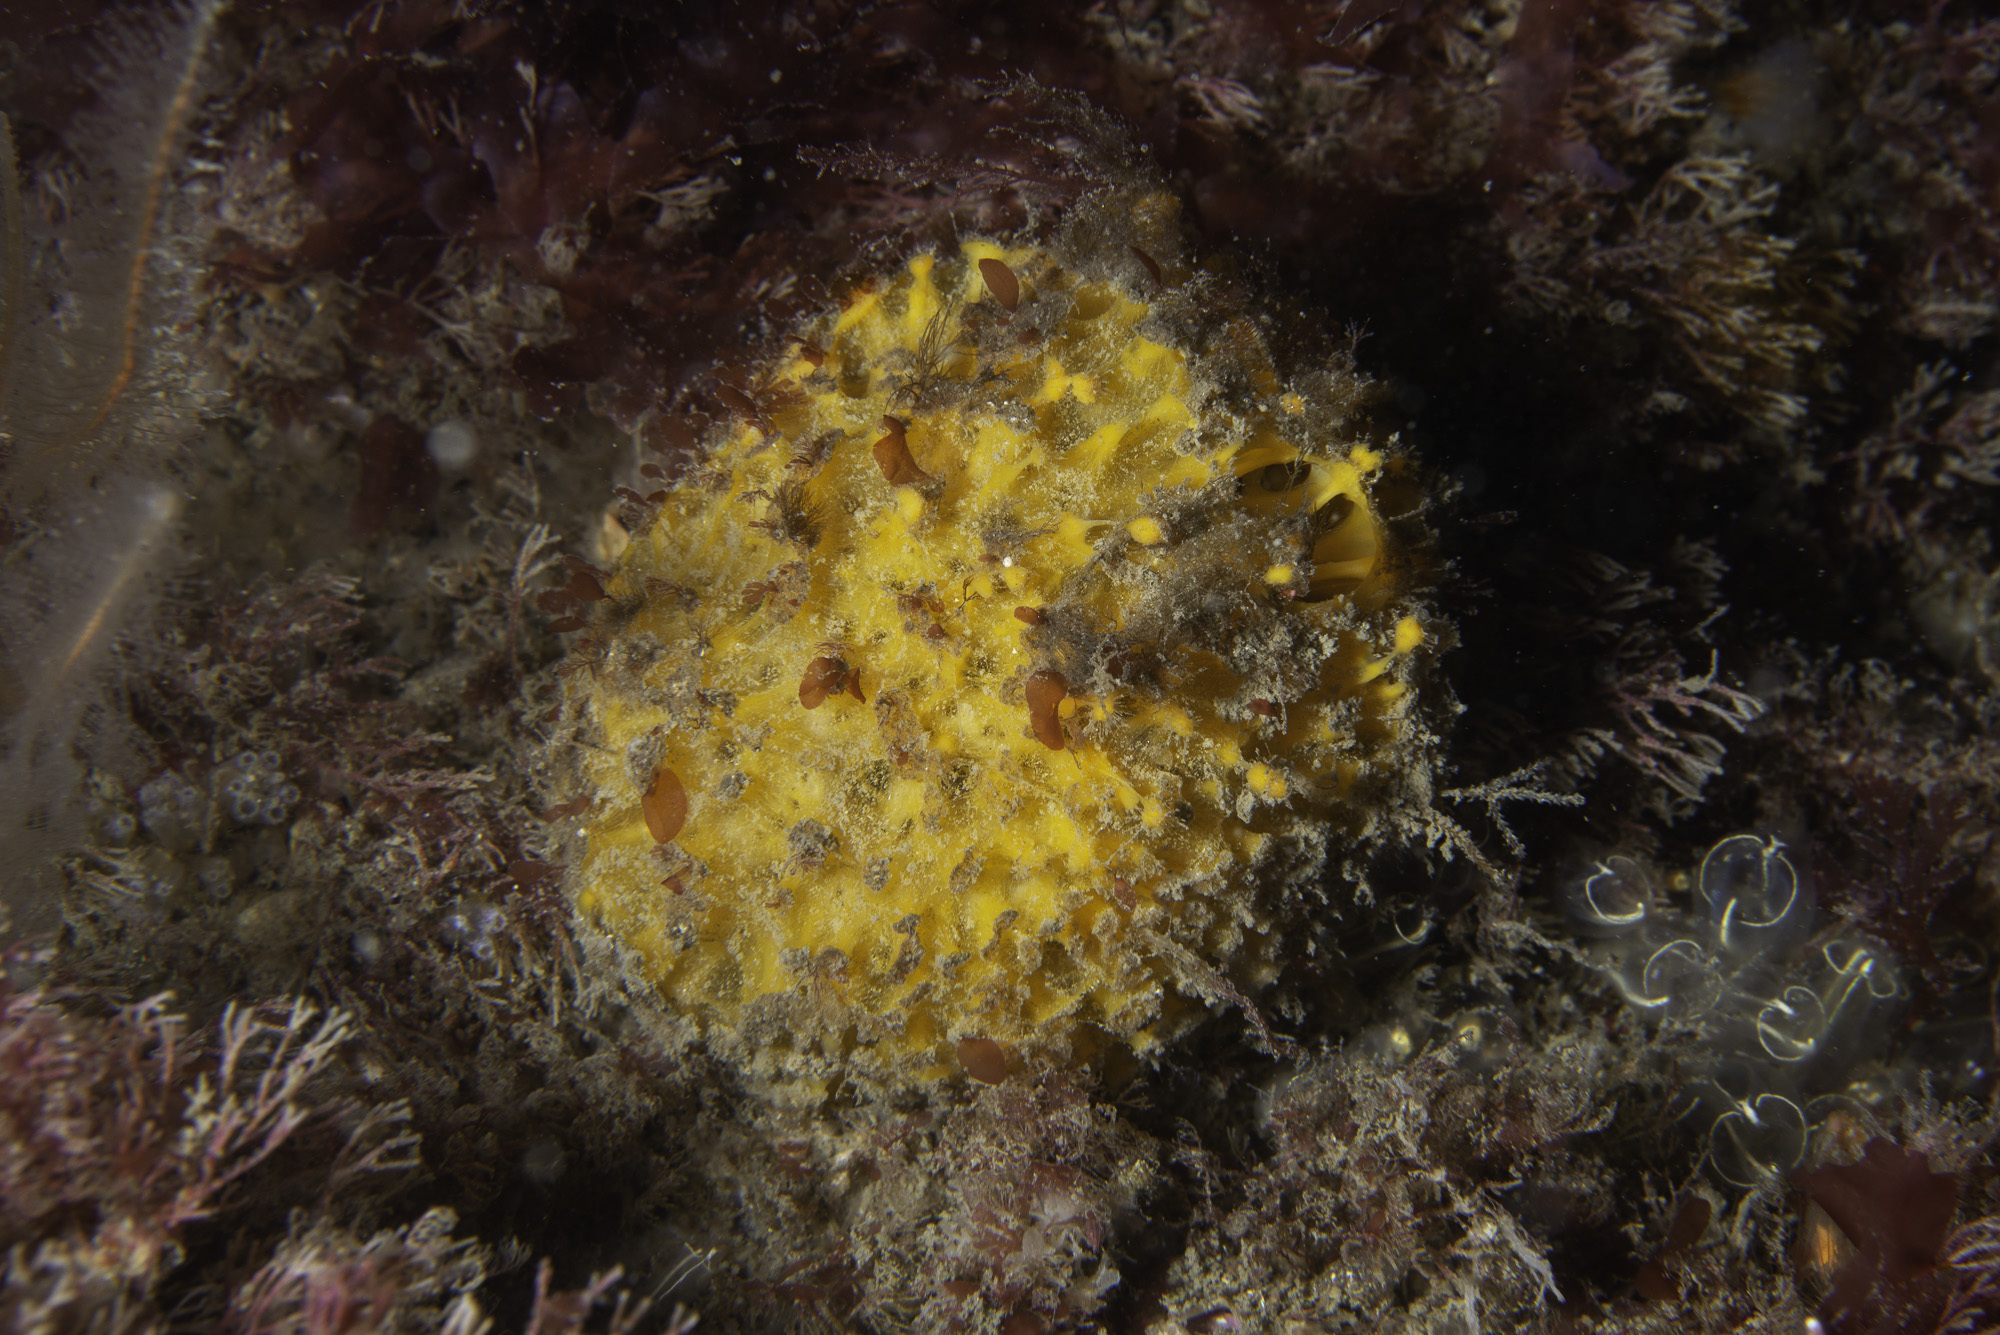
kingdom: Animalia
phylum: Porifera
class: Demospongiae
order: Tethyida
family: Tethyidae
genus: Tethya
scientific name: Tethya citrina
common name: Sea lemon
